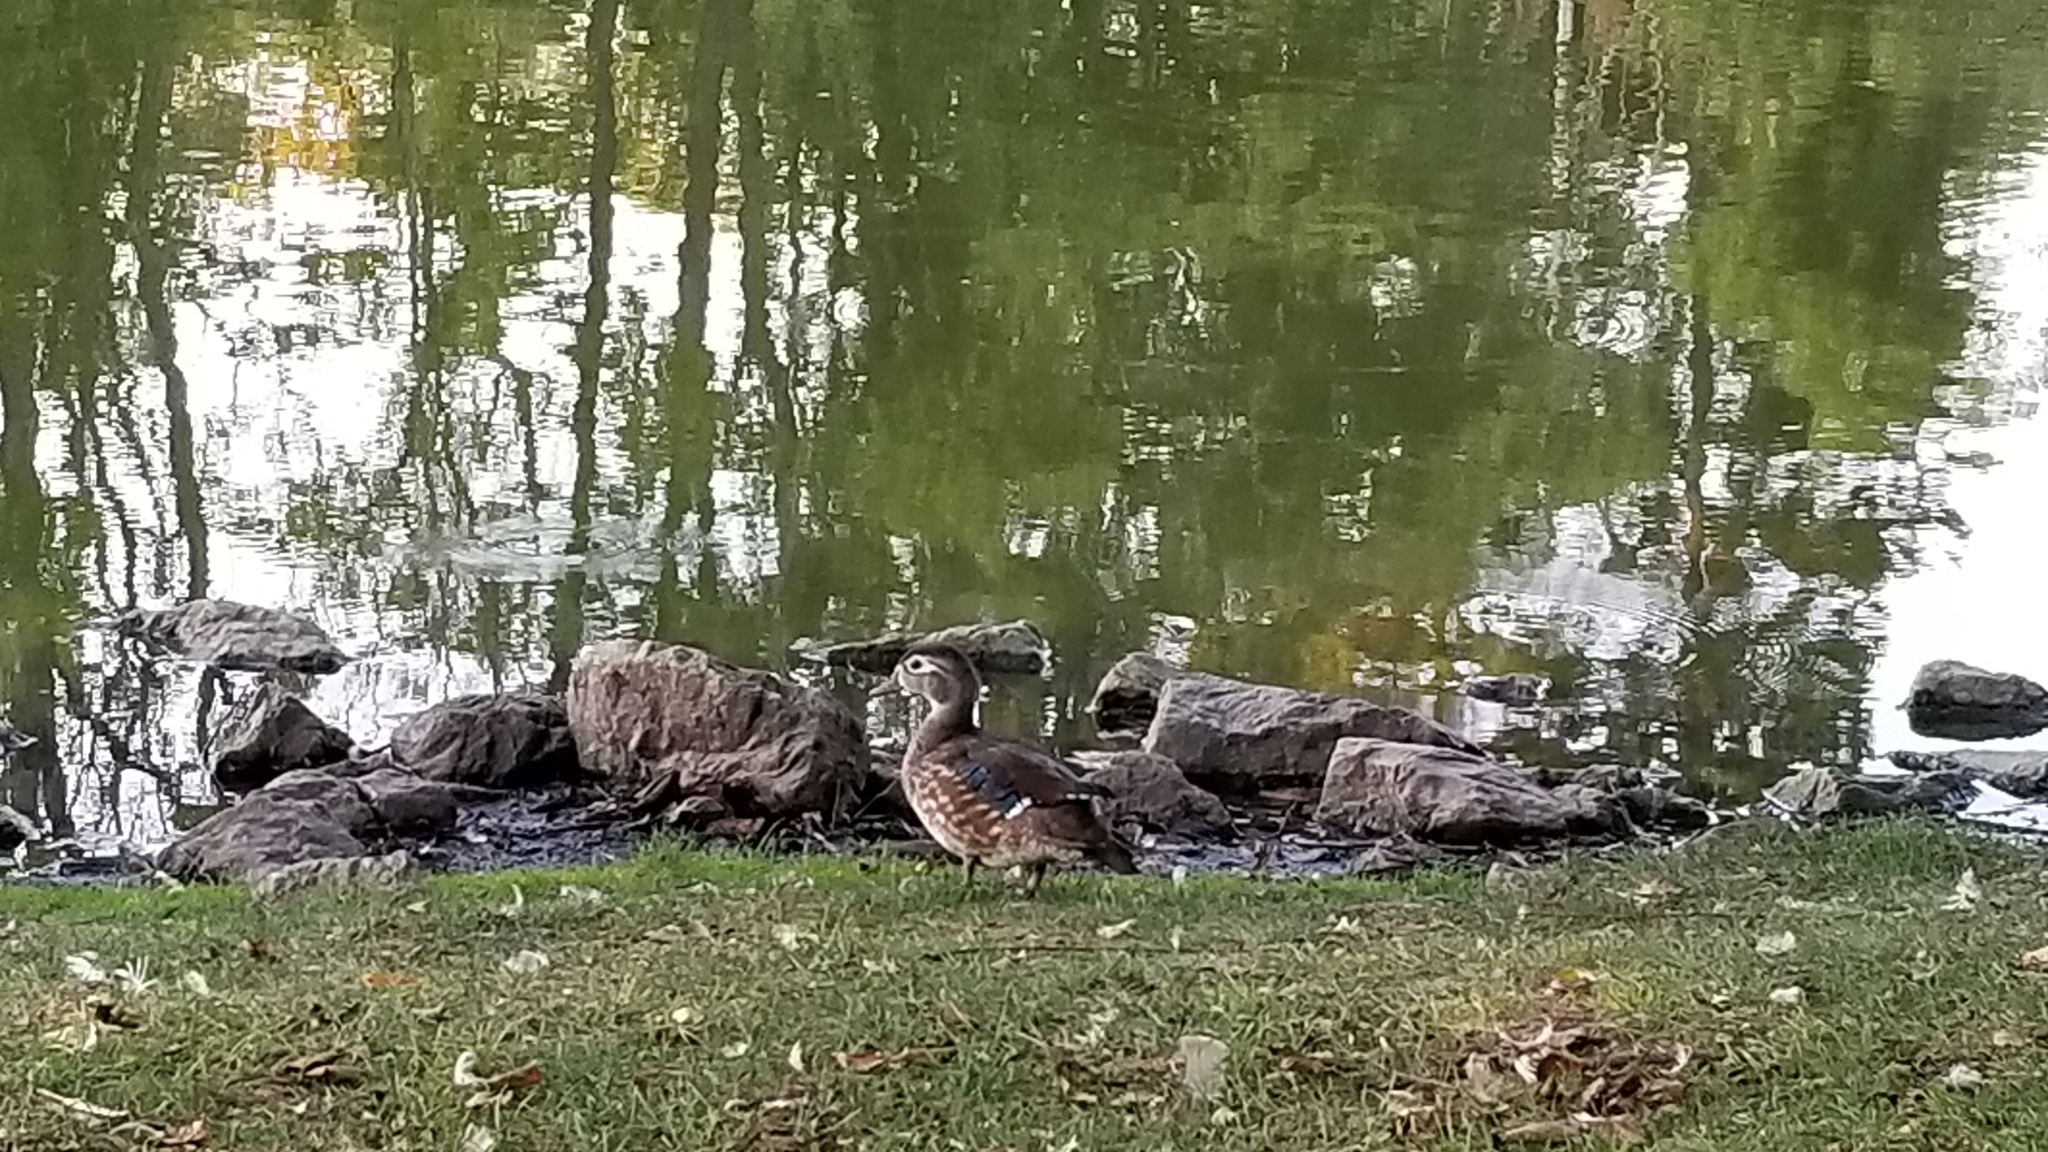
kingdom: Animalia
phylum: Chordata
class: Aves
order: Anseriformes
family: Anatidae
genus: Aix
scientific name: Aix sponsa
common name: Wood duck
